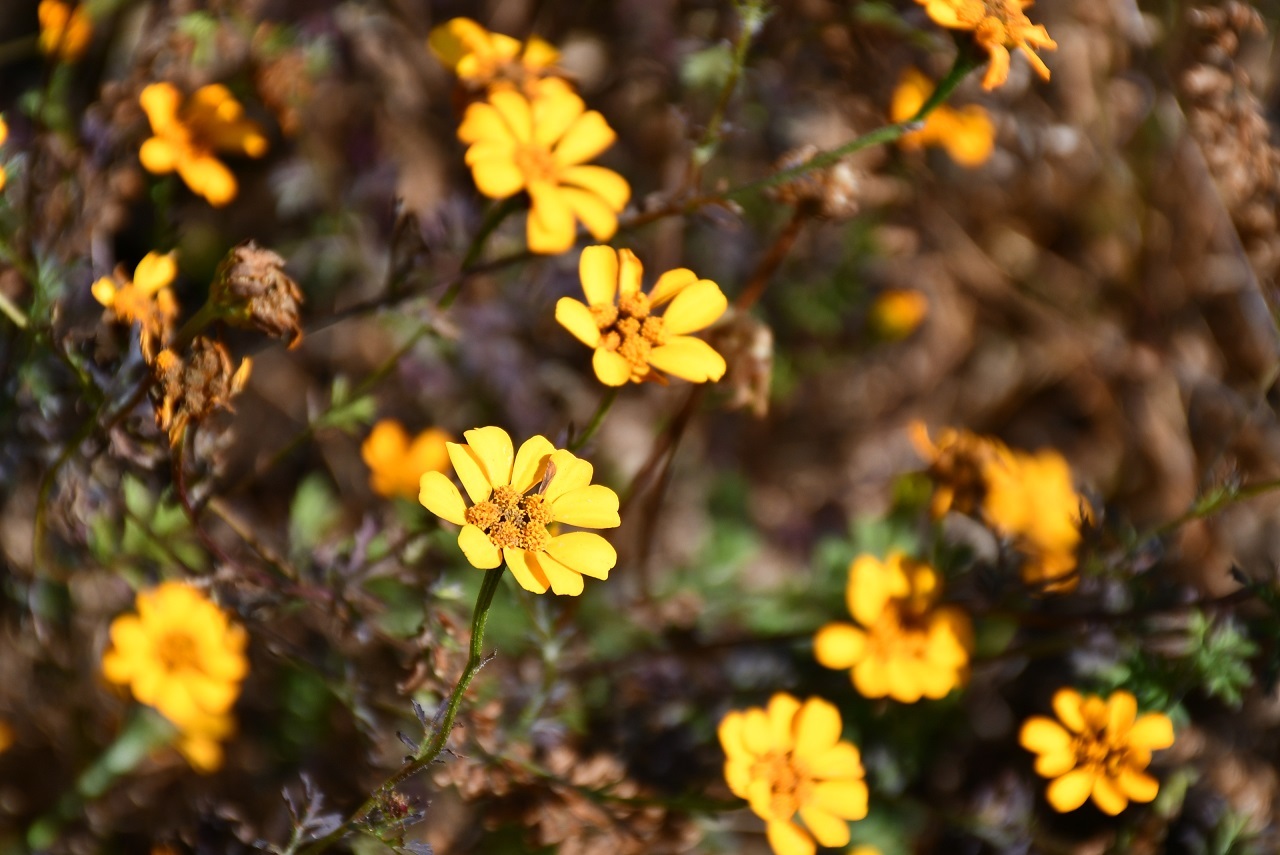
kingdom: Plantae
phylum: Tracheophyta
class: Magnoliopsida
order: Asterales
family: Asteraceae
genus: Dyssodia
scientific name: Dyssodia decipiens
